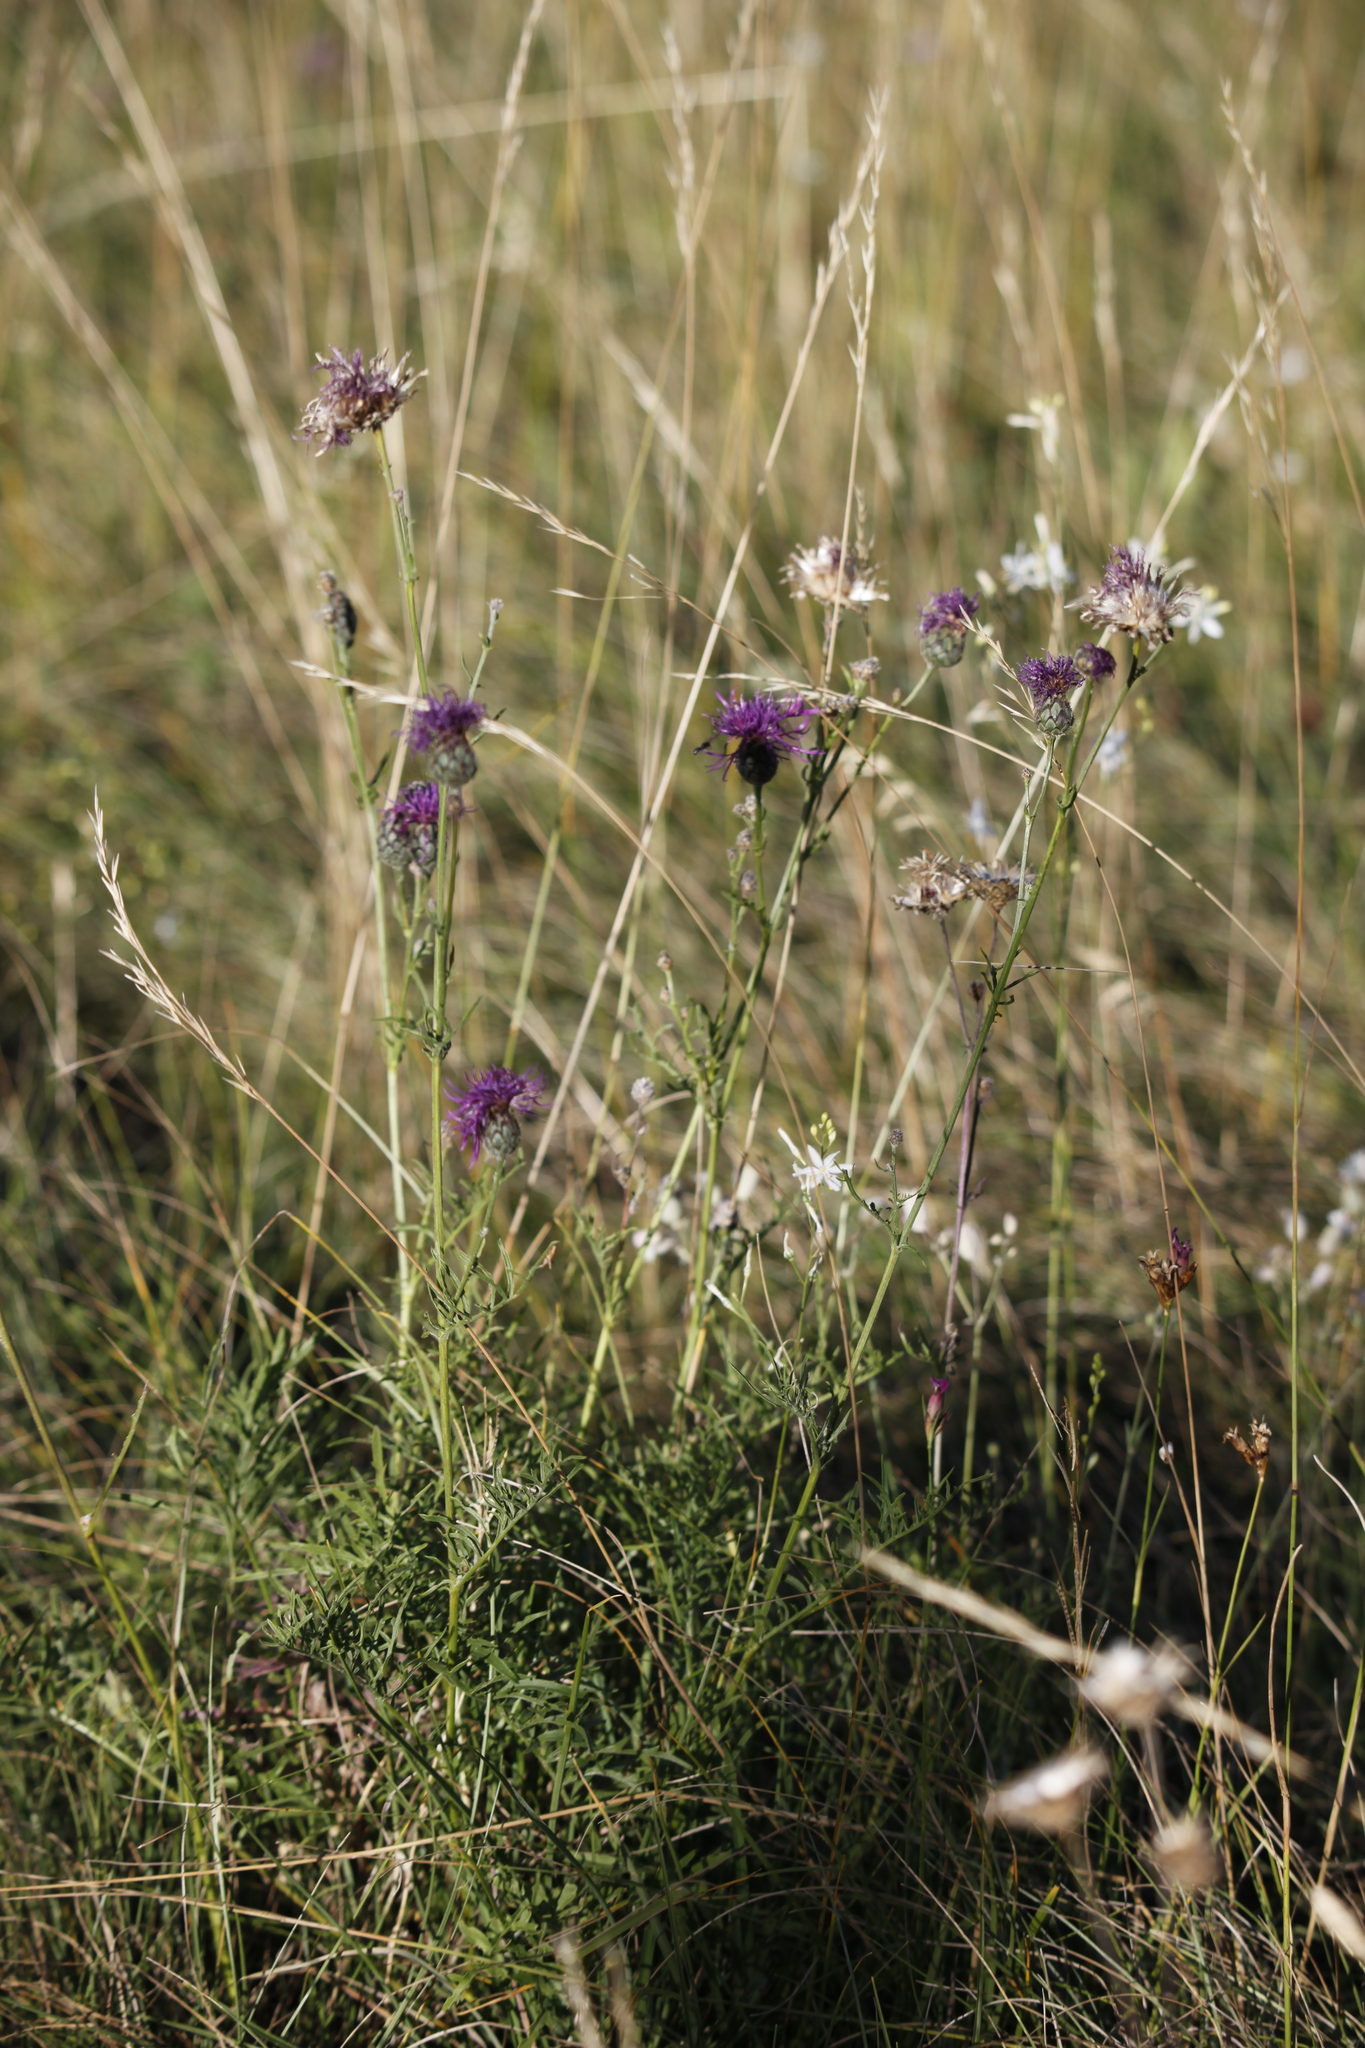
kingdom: Plantae
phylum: Tracheophyta
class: Magnoliopsida
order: Asterales
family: Asteraceae
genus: Centaurea
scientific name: Centaurea scabiosa
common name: Greater knapweed
